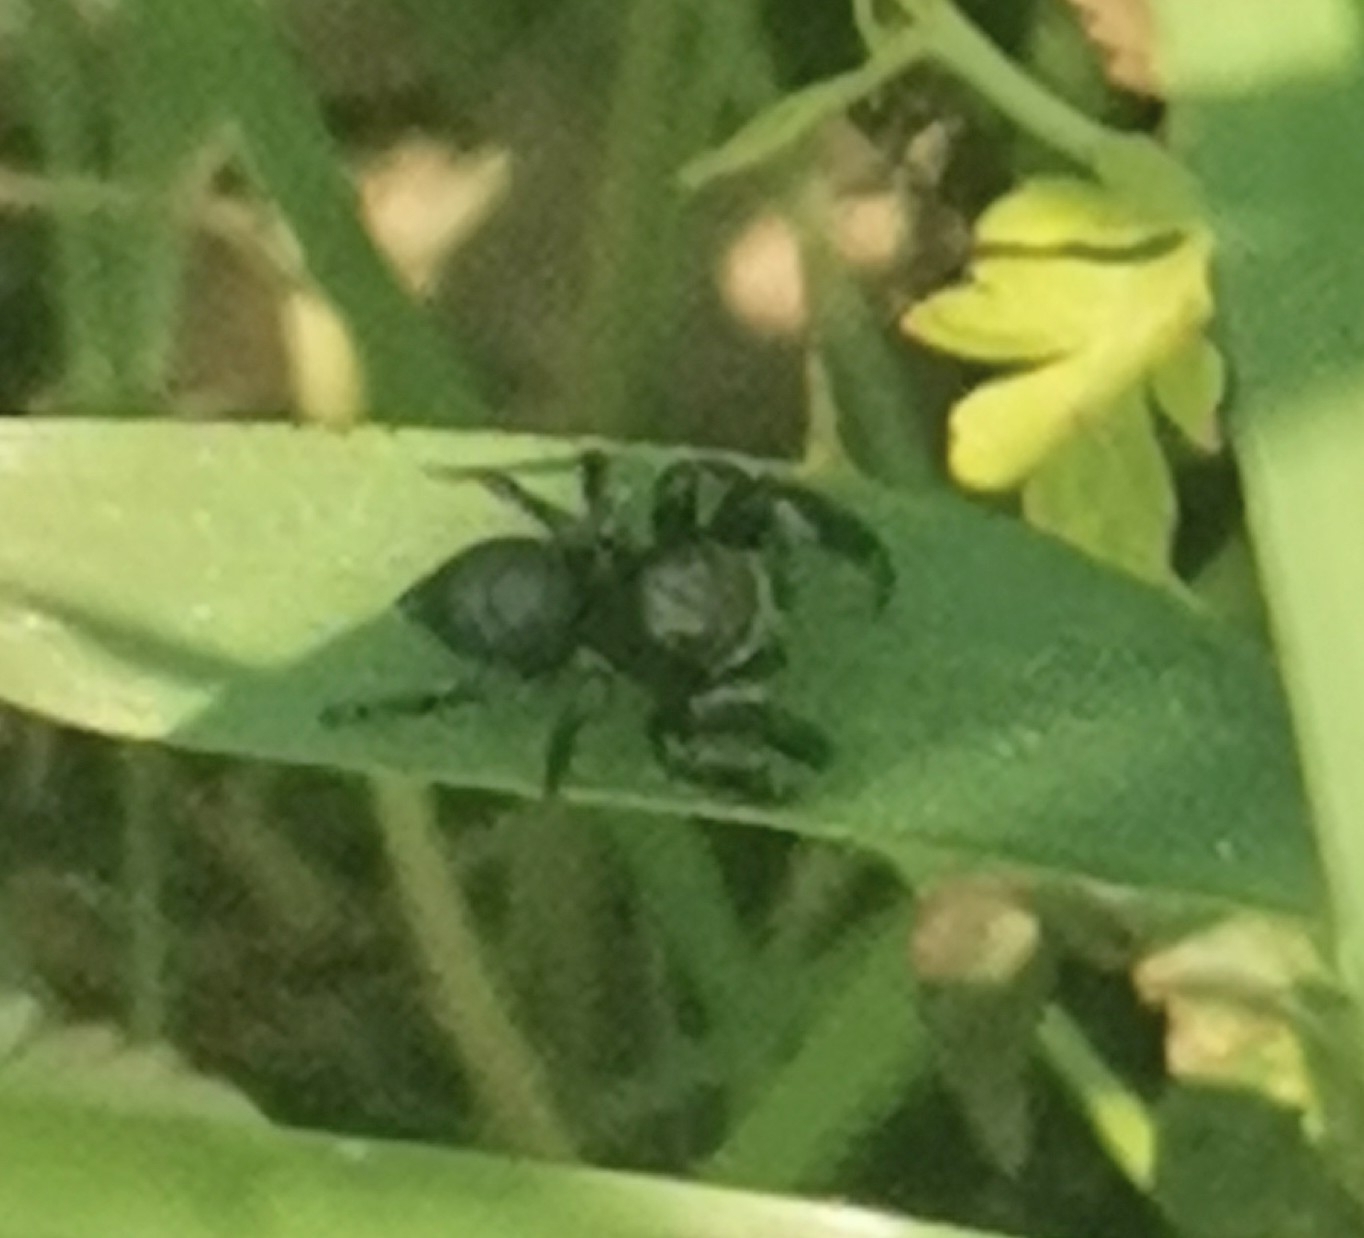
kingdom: Animalia
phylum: Arthropoda
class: Arachnida
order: Araneae
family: Salticidae
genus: Evarcha
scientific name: Evarcha arcuata
